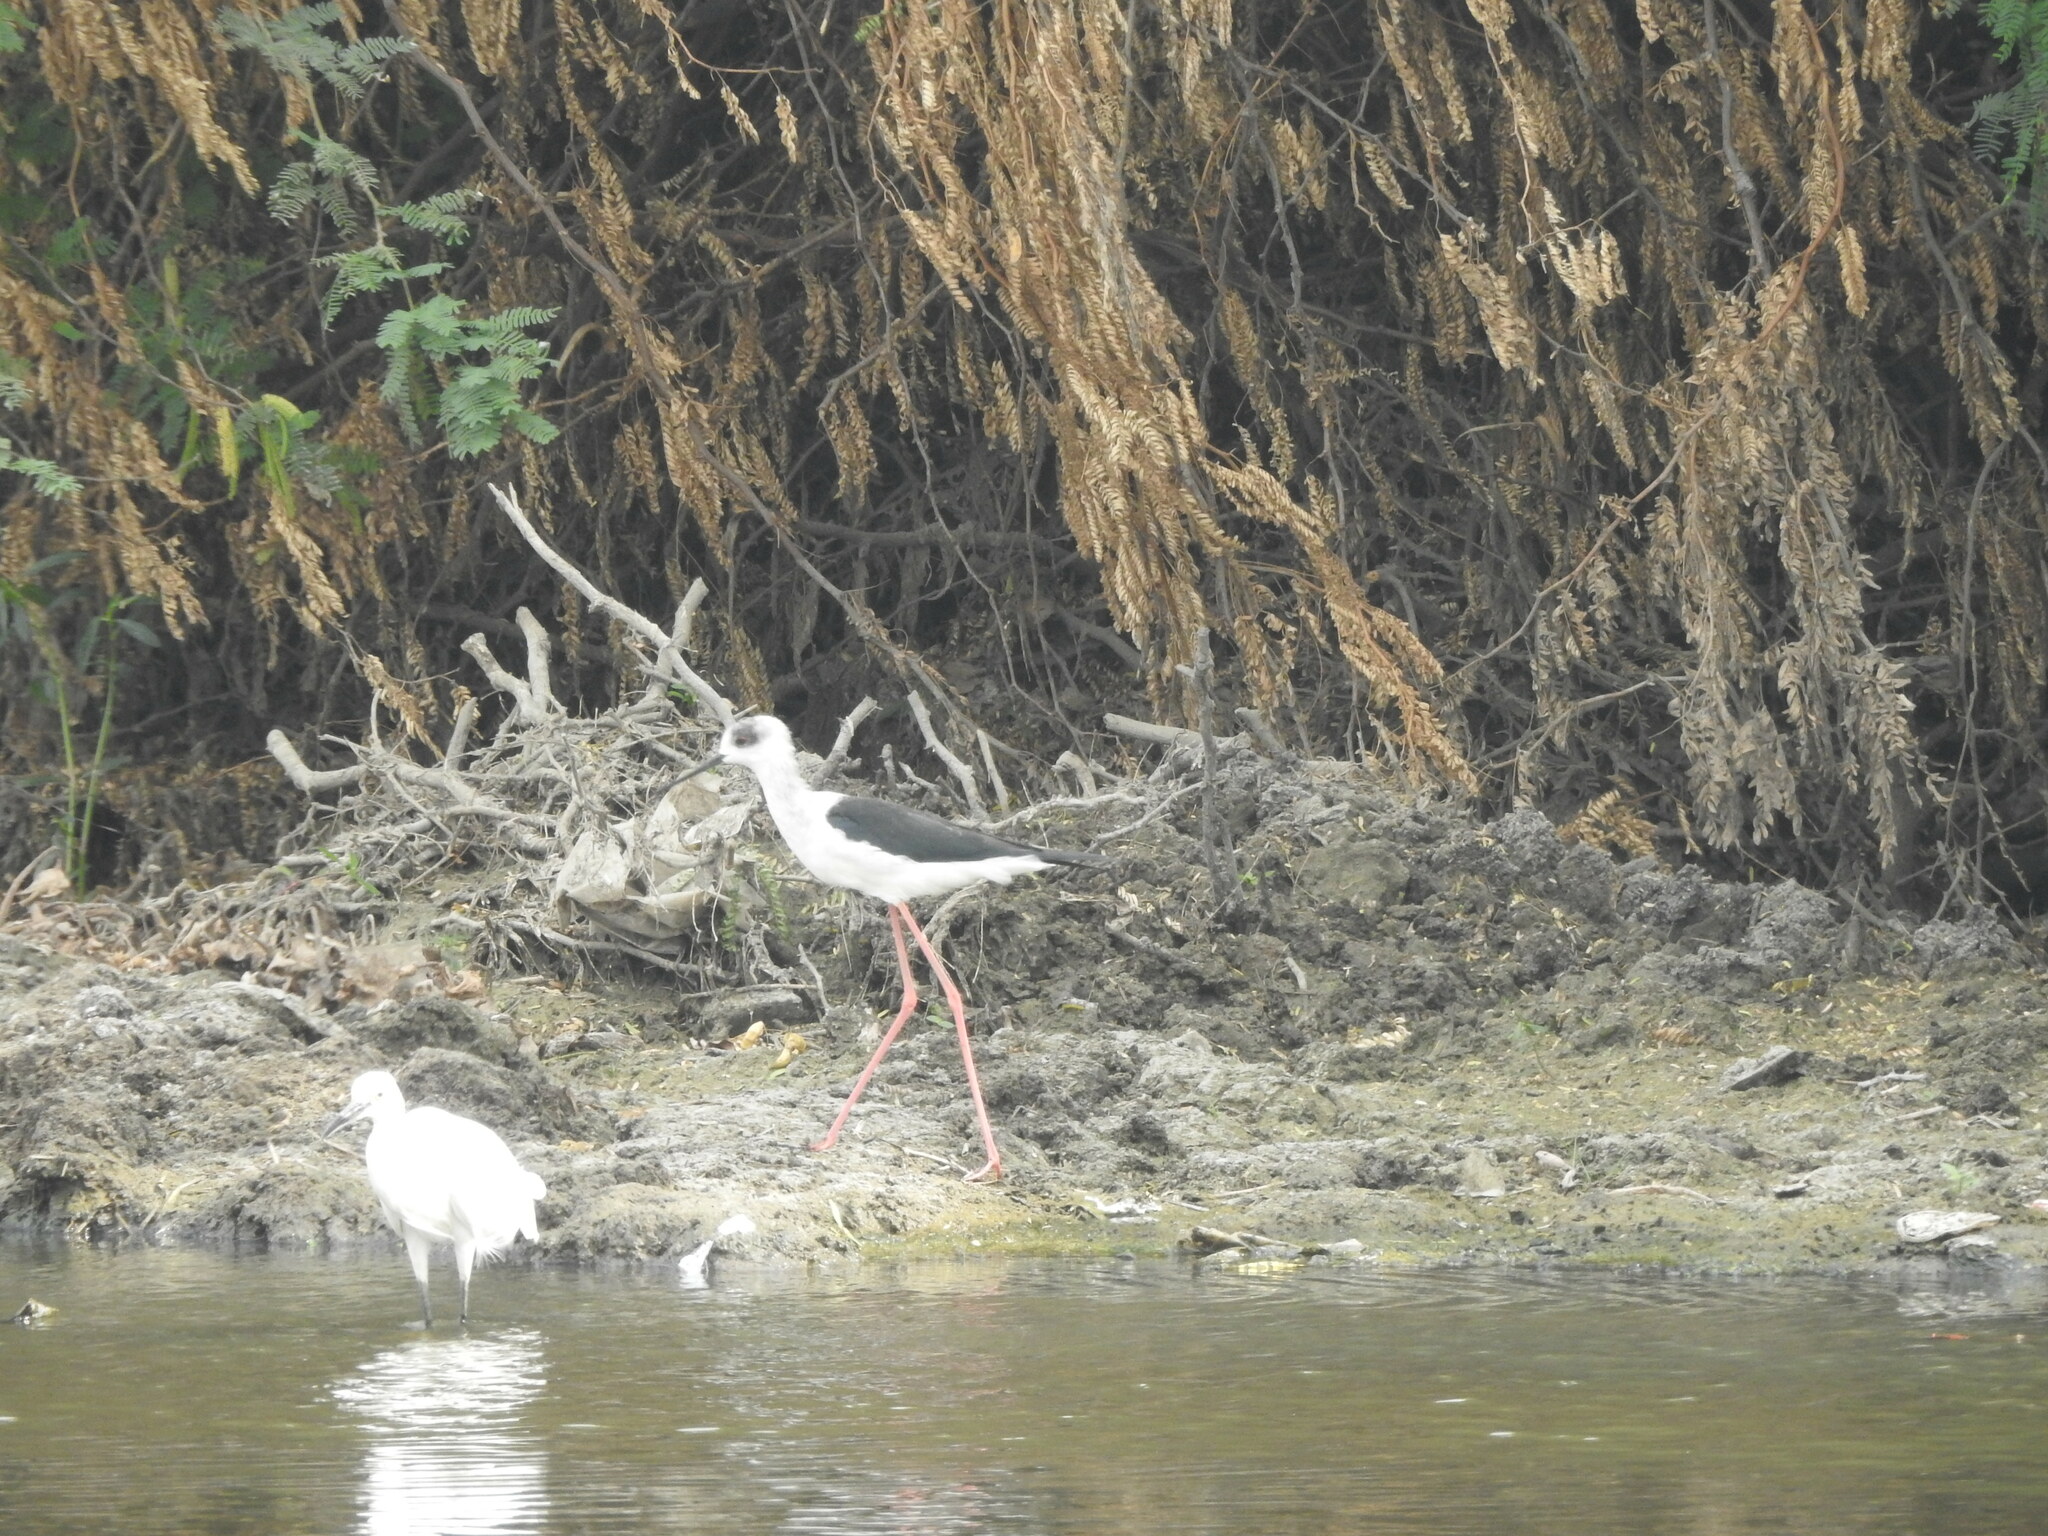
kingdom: Animalia
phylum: Chordata
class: Aves
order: Charadriiformes
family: Recurvirostridae
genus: Himantopus
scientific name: Himantopus himantopus
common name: Black-winged stilt
